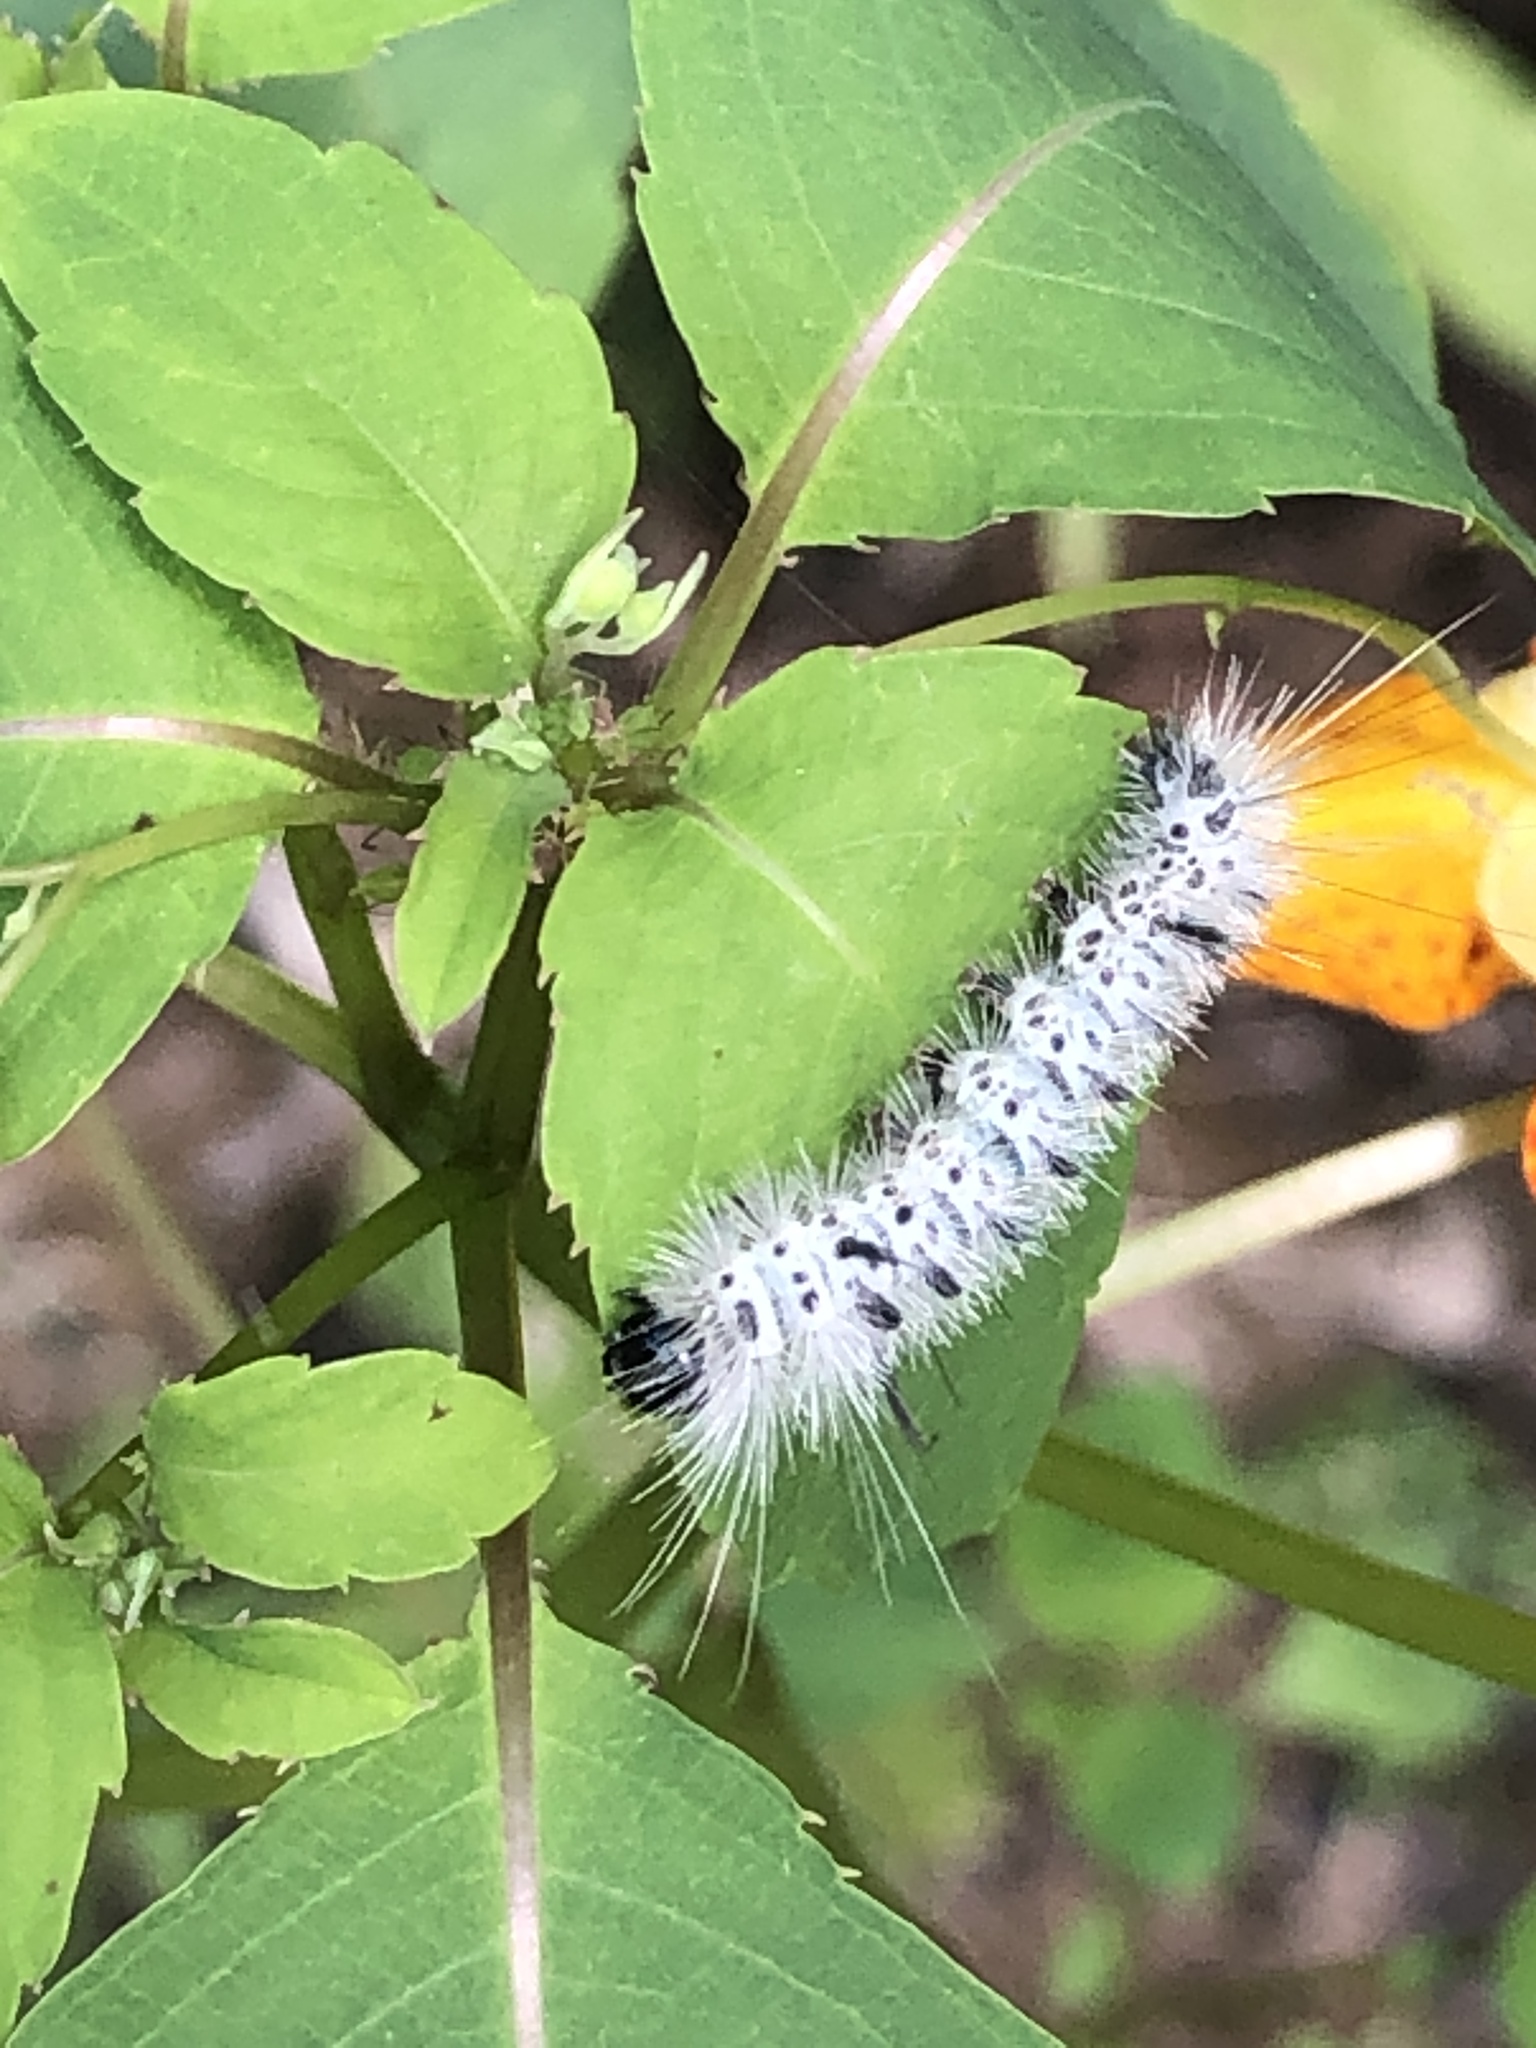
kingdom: Animalia
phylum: Arthropoda
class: Insecta
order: Lepidoptera
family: Erebidae
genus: Lophocampa
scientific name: Lophocampa caryae
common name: Hickory tussock moth
